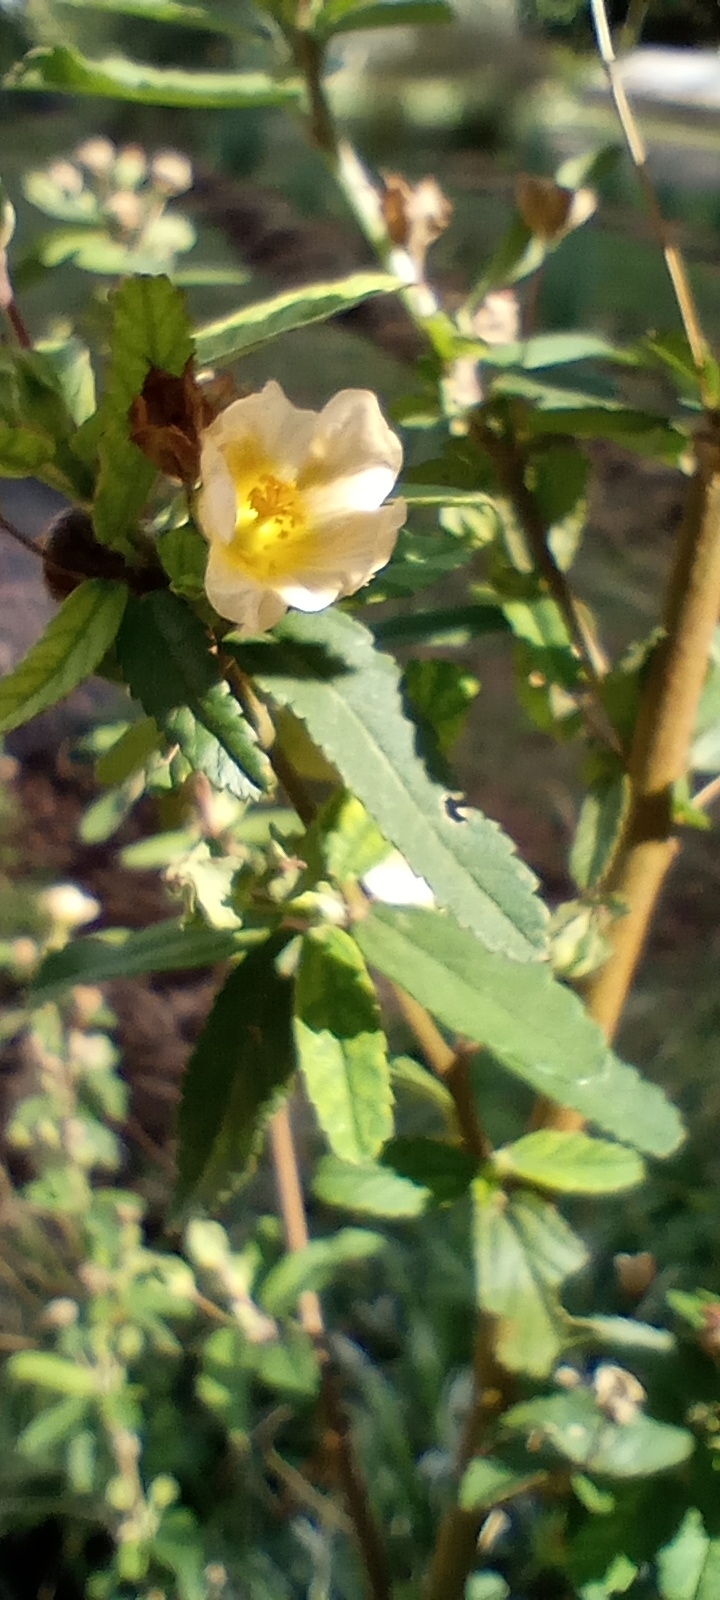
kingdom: Plantae
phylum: Tracheophyta
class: Magnoliopsida
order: Malvales
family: Malvaceae
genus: Sida
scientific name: Sida rhombifolia
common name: Queensland-hemp
